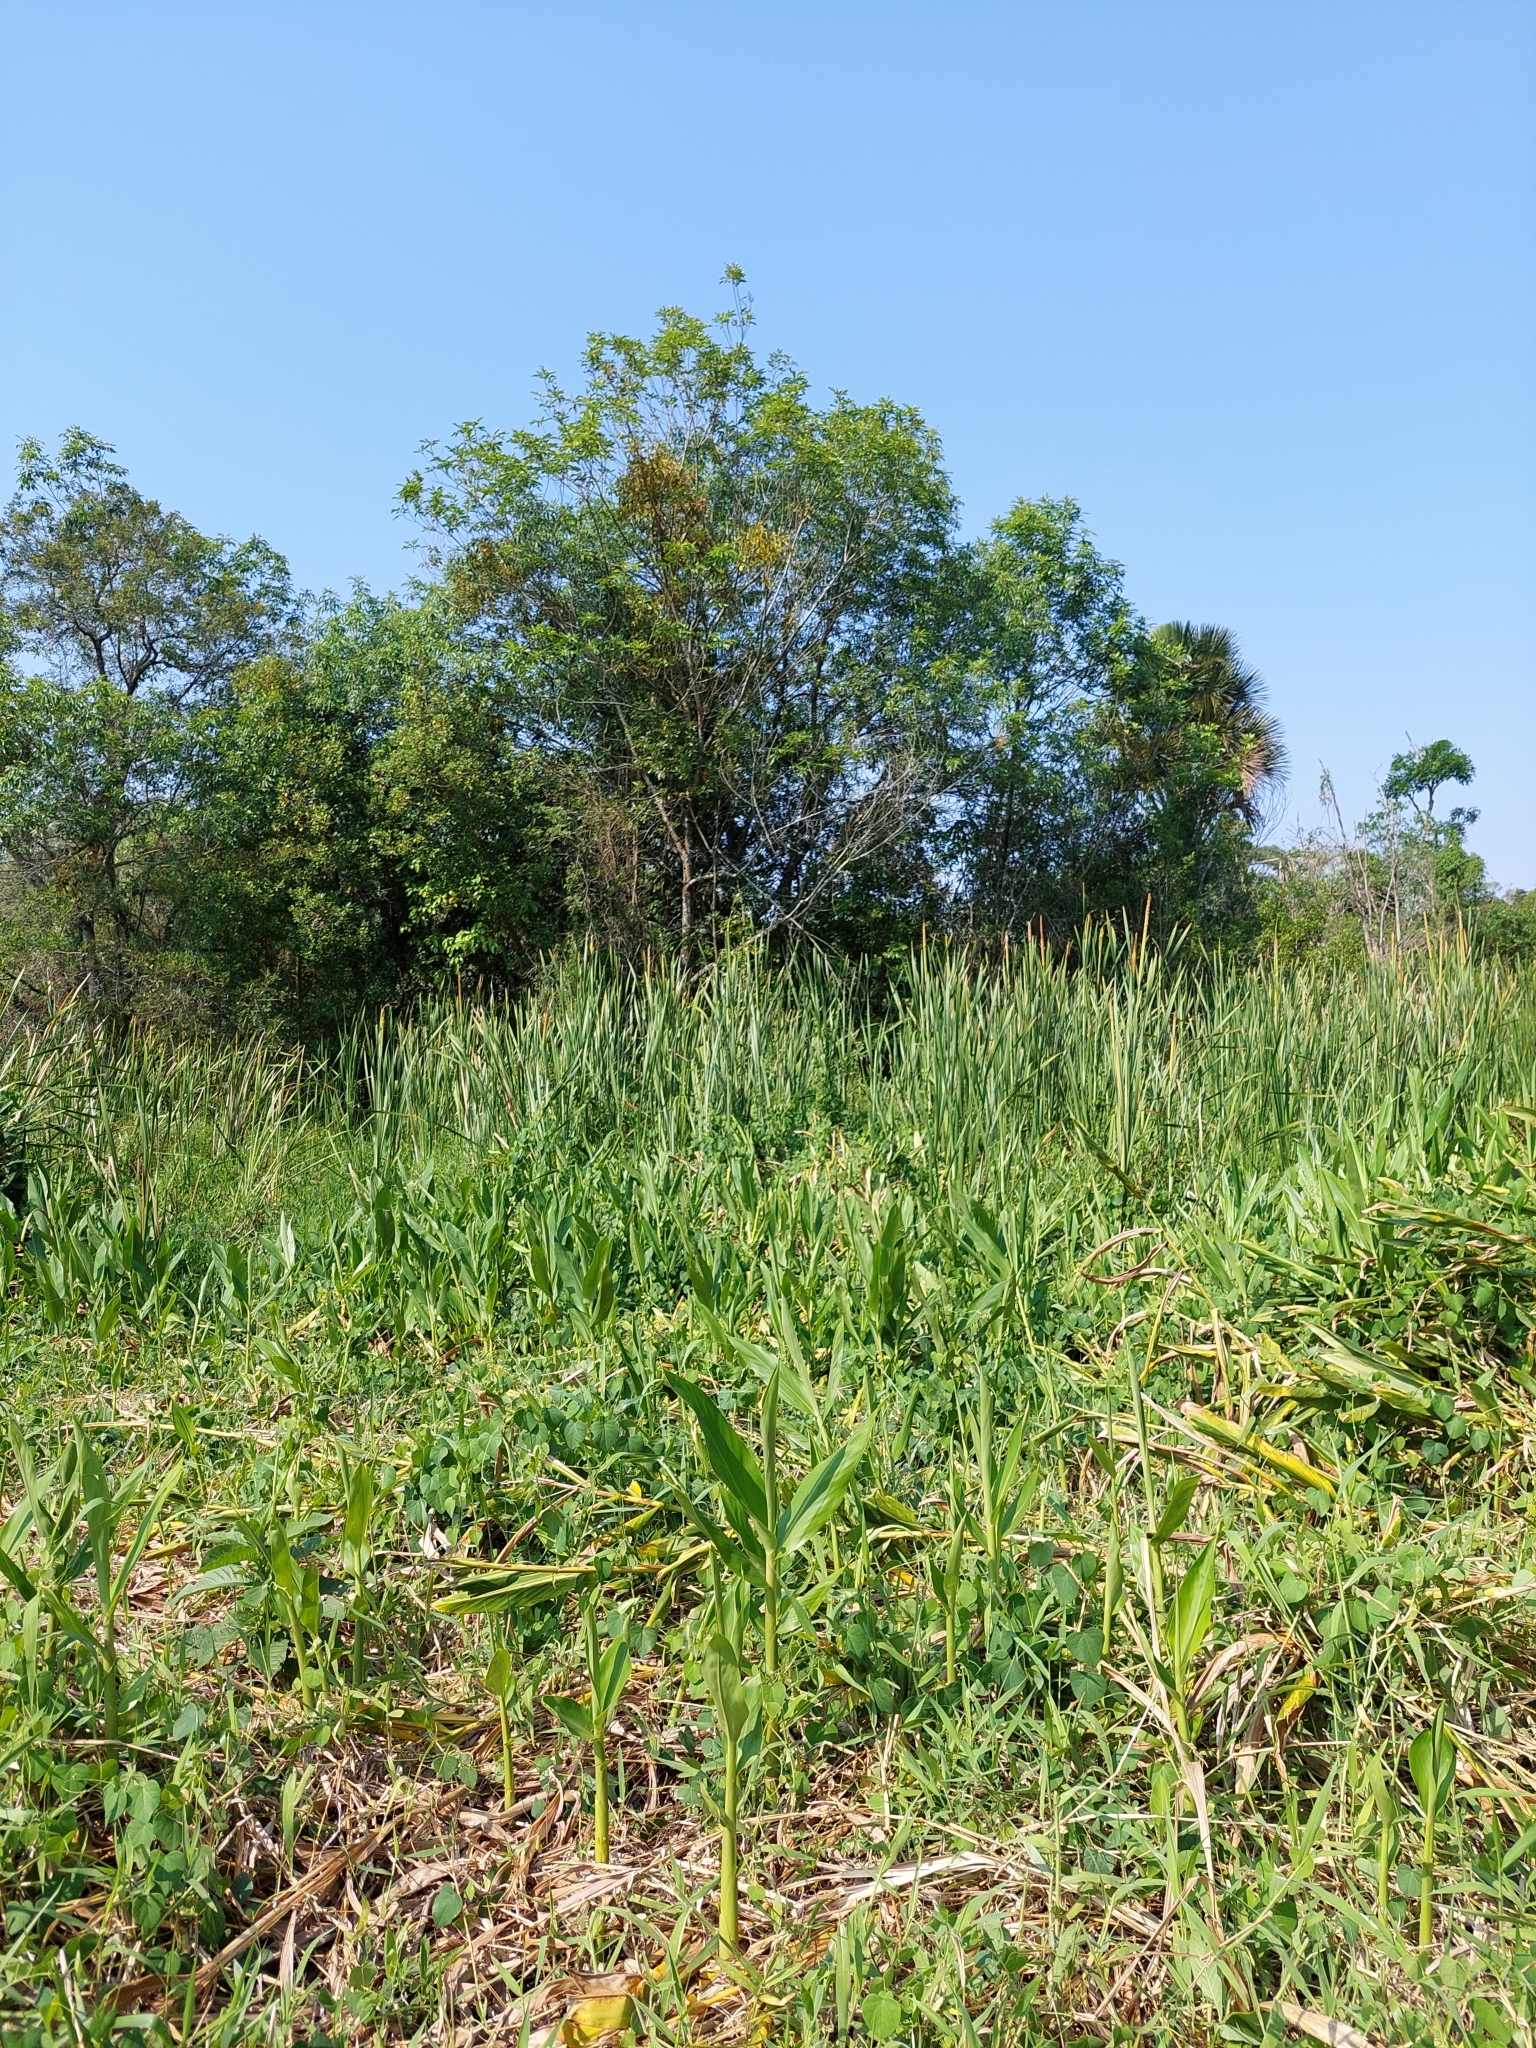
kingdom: Plantae
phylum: Tracheophyta
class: Liliopsida
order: Zingiberales
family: Zingiberaceae
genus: Hedychium
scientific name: Hedychium coronarium
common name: White garland-lily
